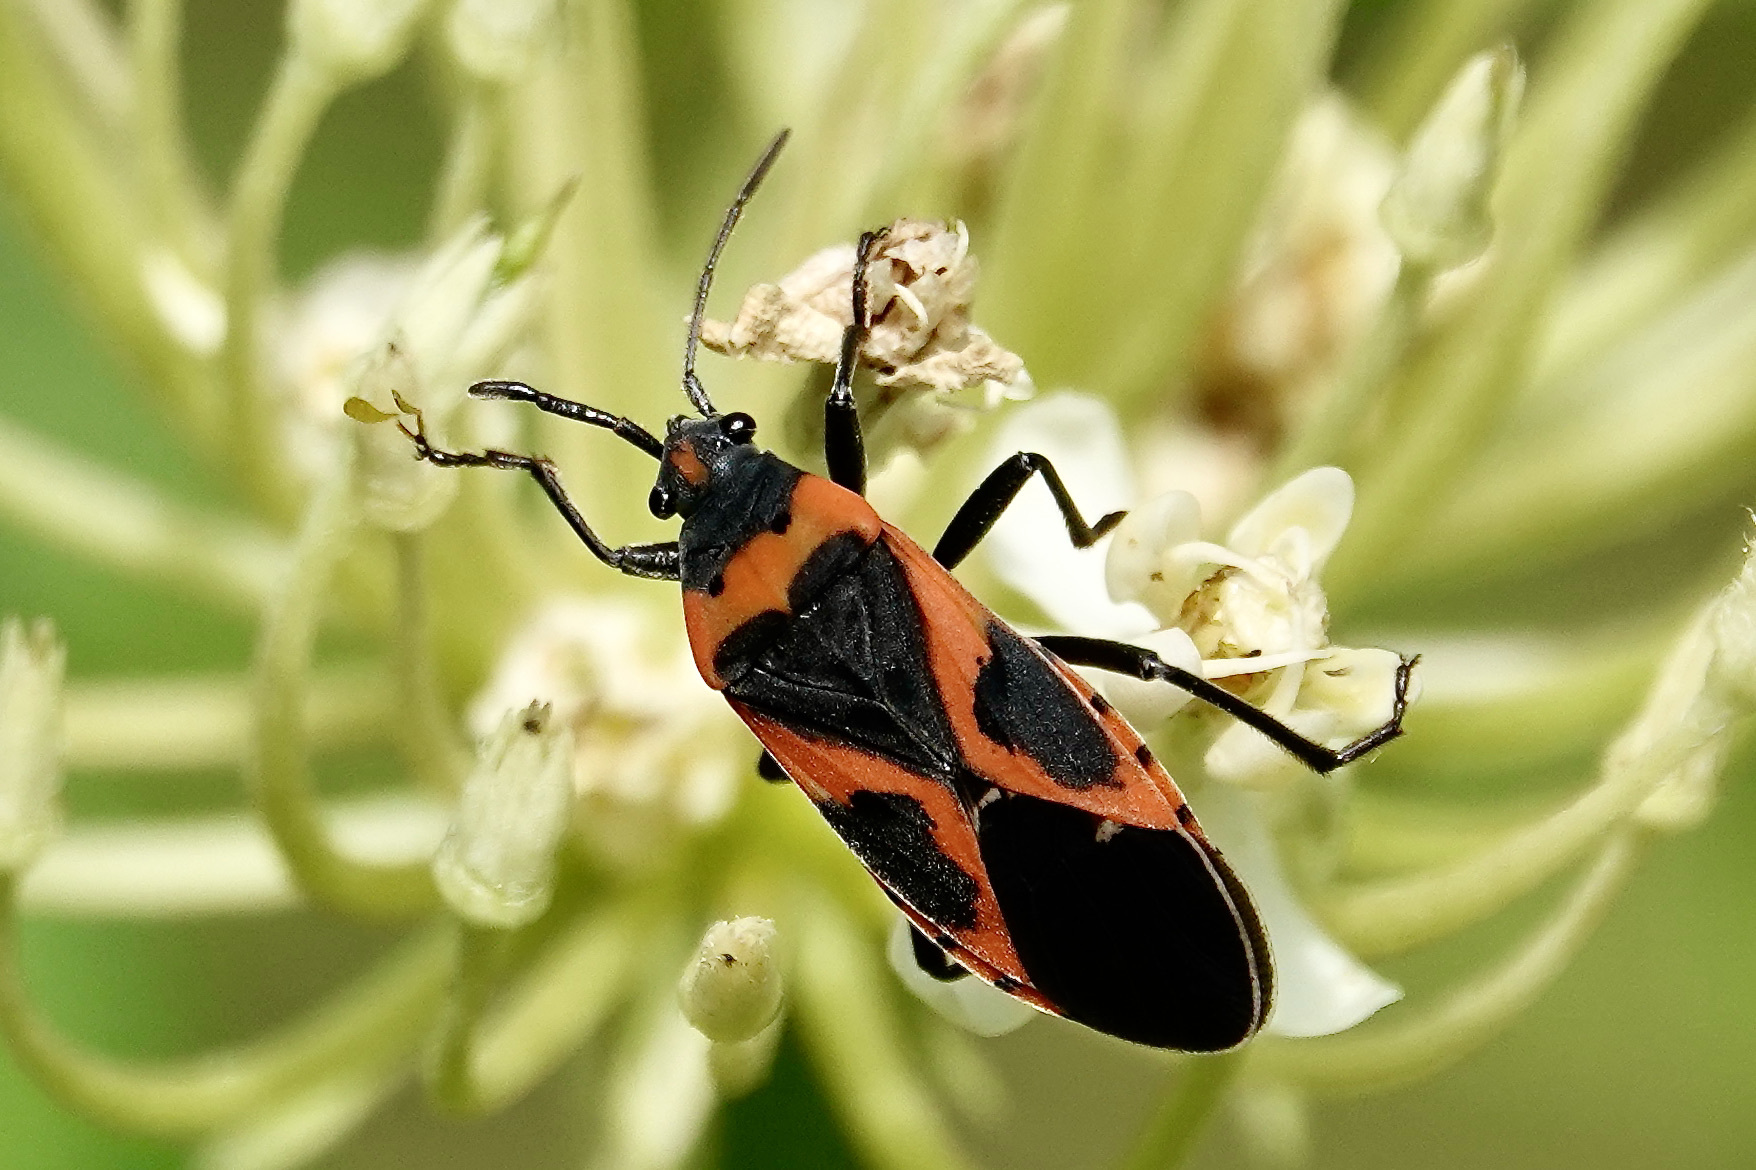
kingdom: Animalia
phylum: Arthropoda
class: Insecta
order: Hemiptera
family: Lygaeidae
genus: Lygaeus
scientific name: Lygaeus kalmii
